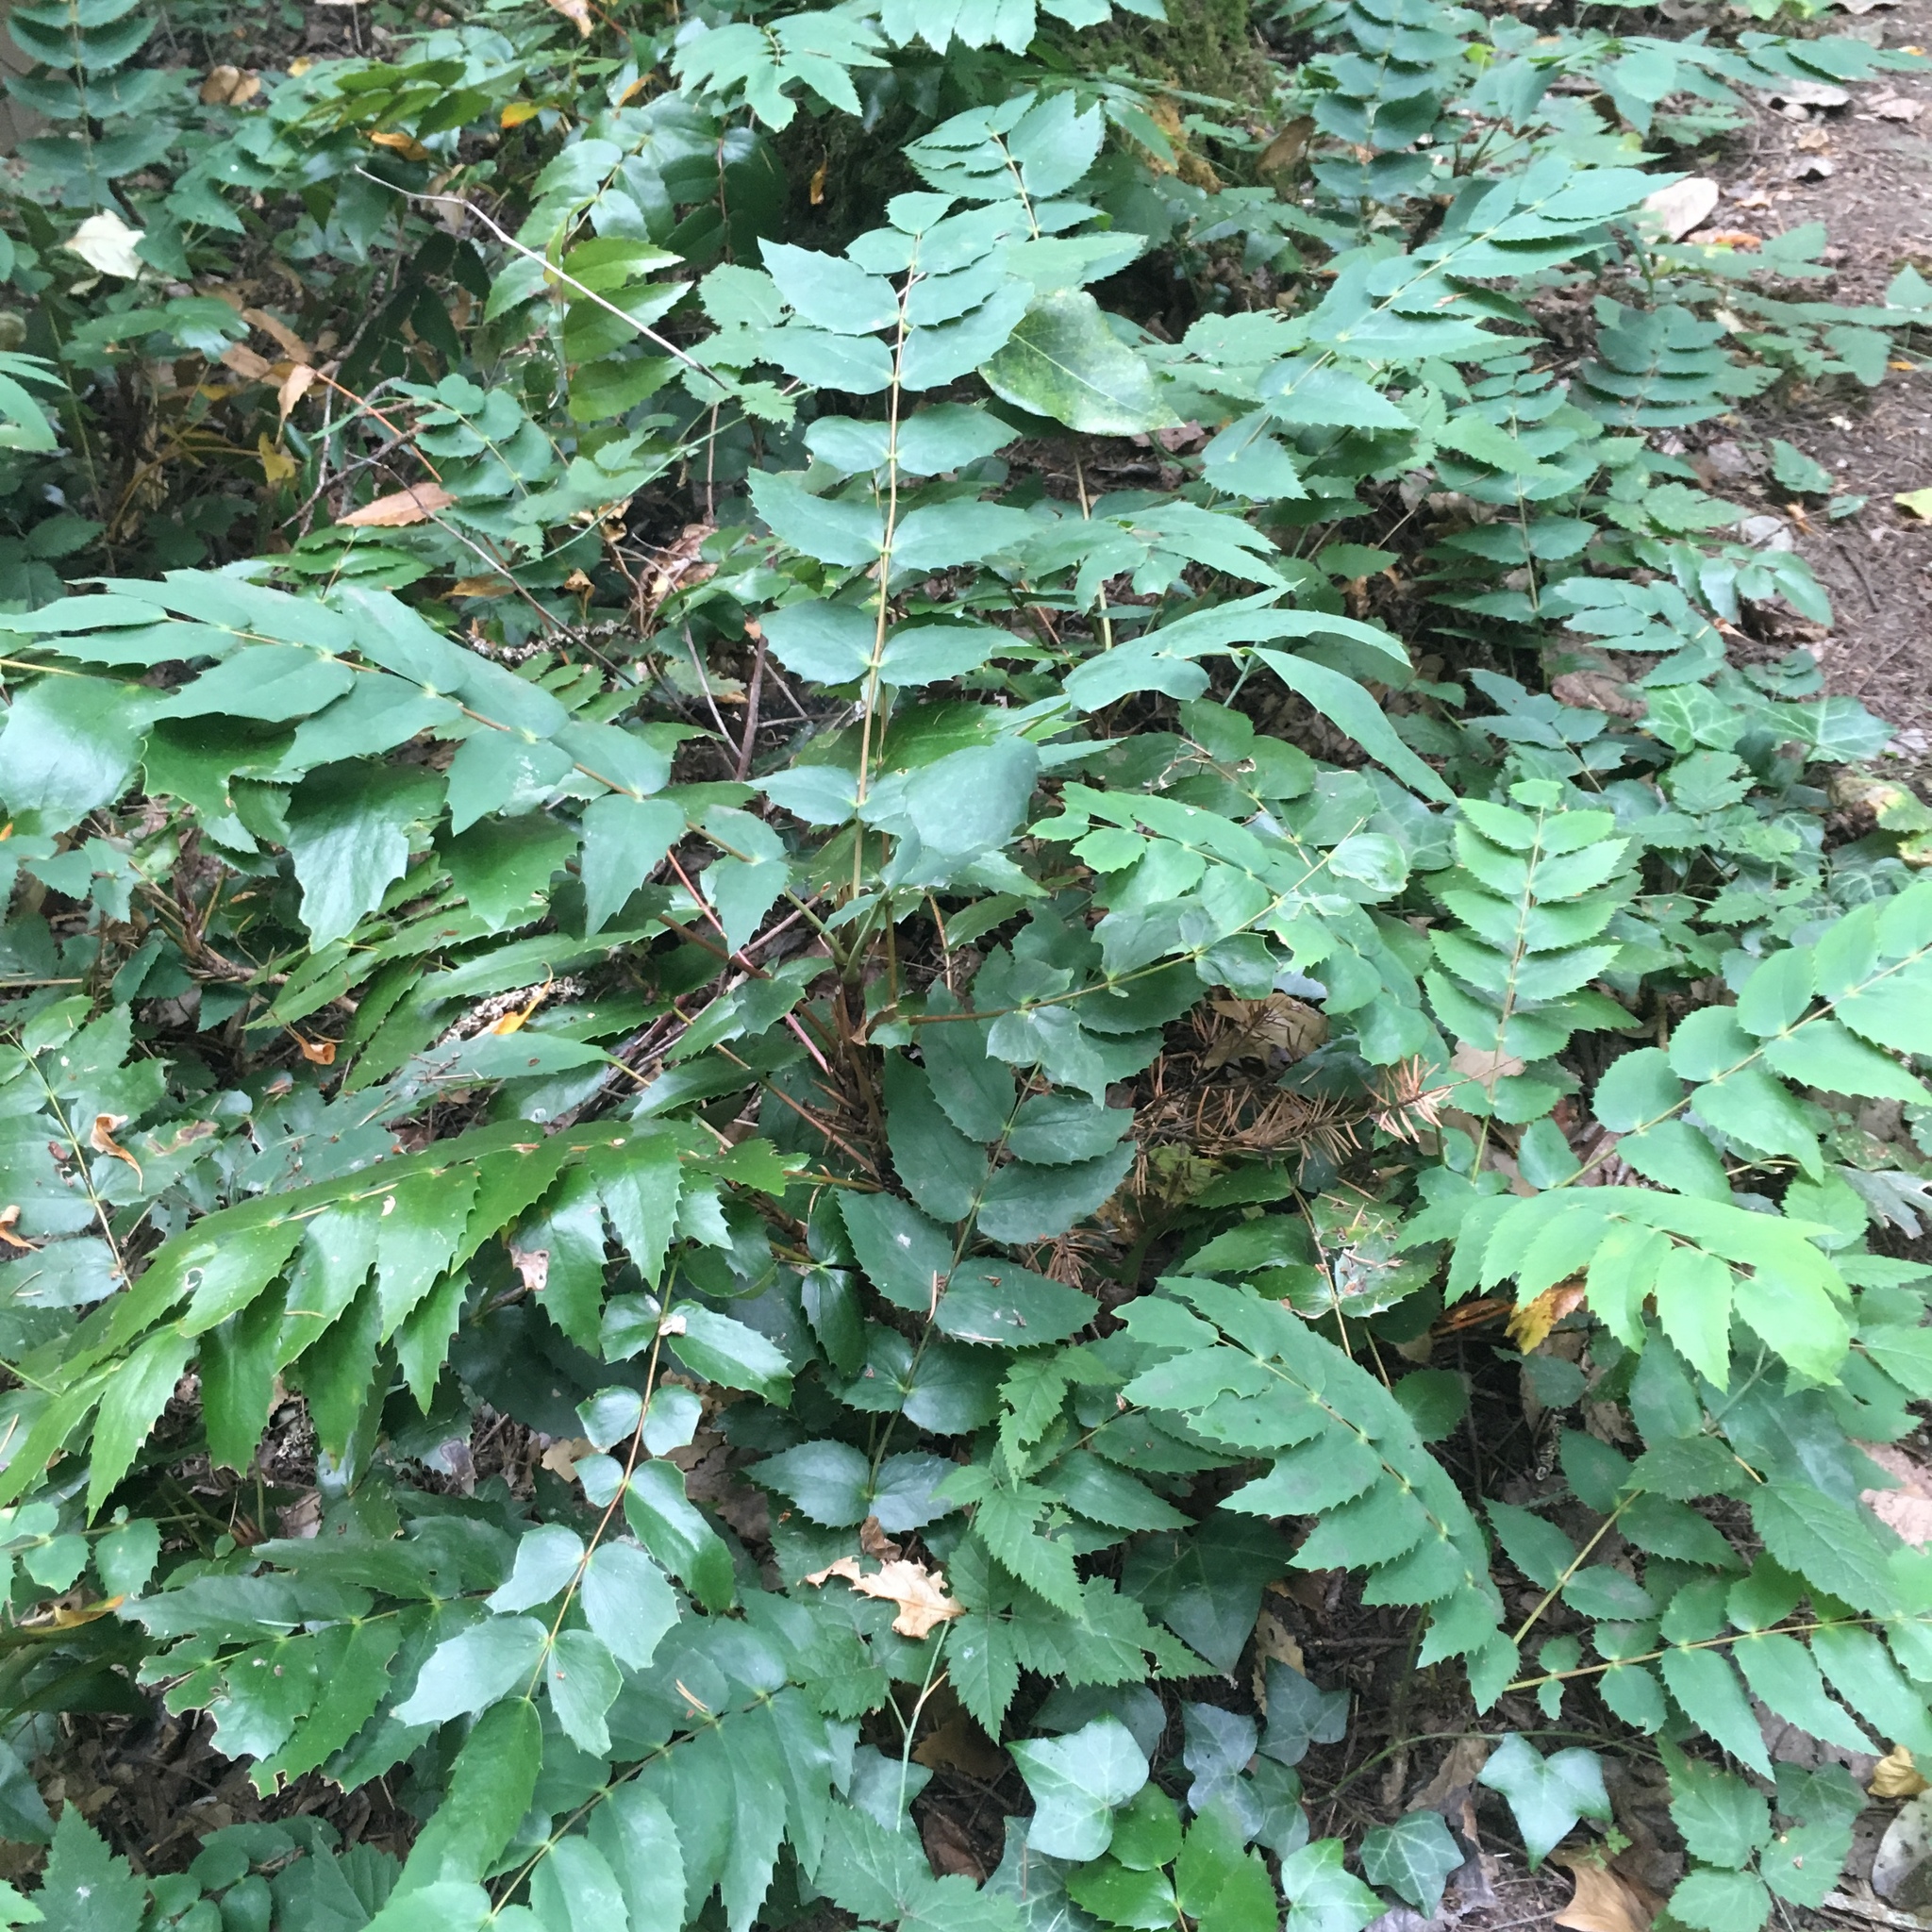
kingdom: Plantae
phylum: Tracheophyta
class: Magnoliopsida
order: Ranunculales
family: Berberidaceae
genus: Mahonia
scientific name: Mahonia nervosa
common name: Cascade oregon-grape
